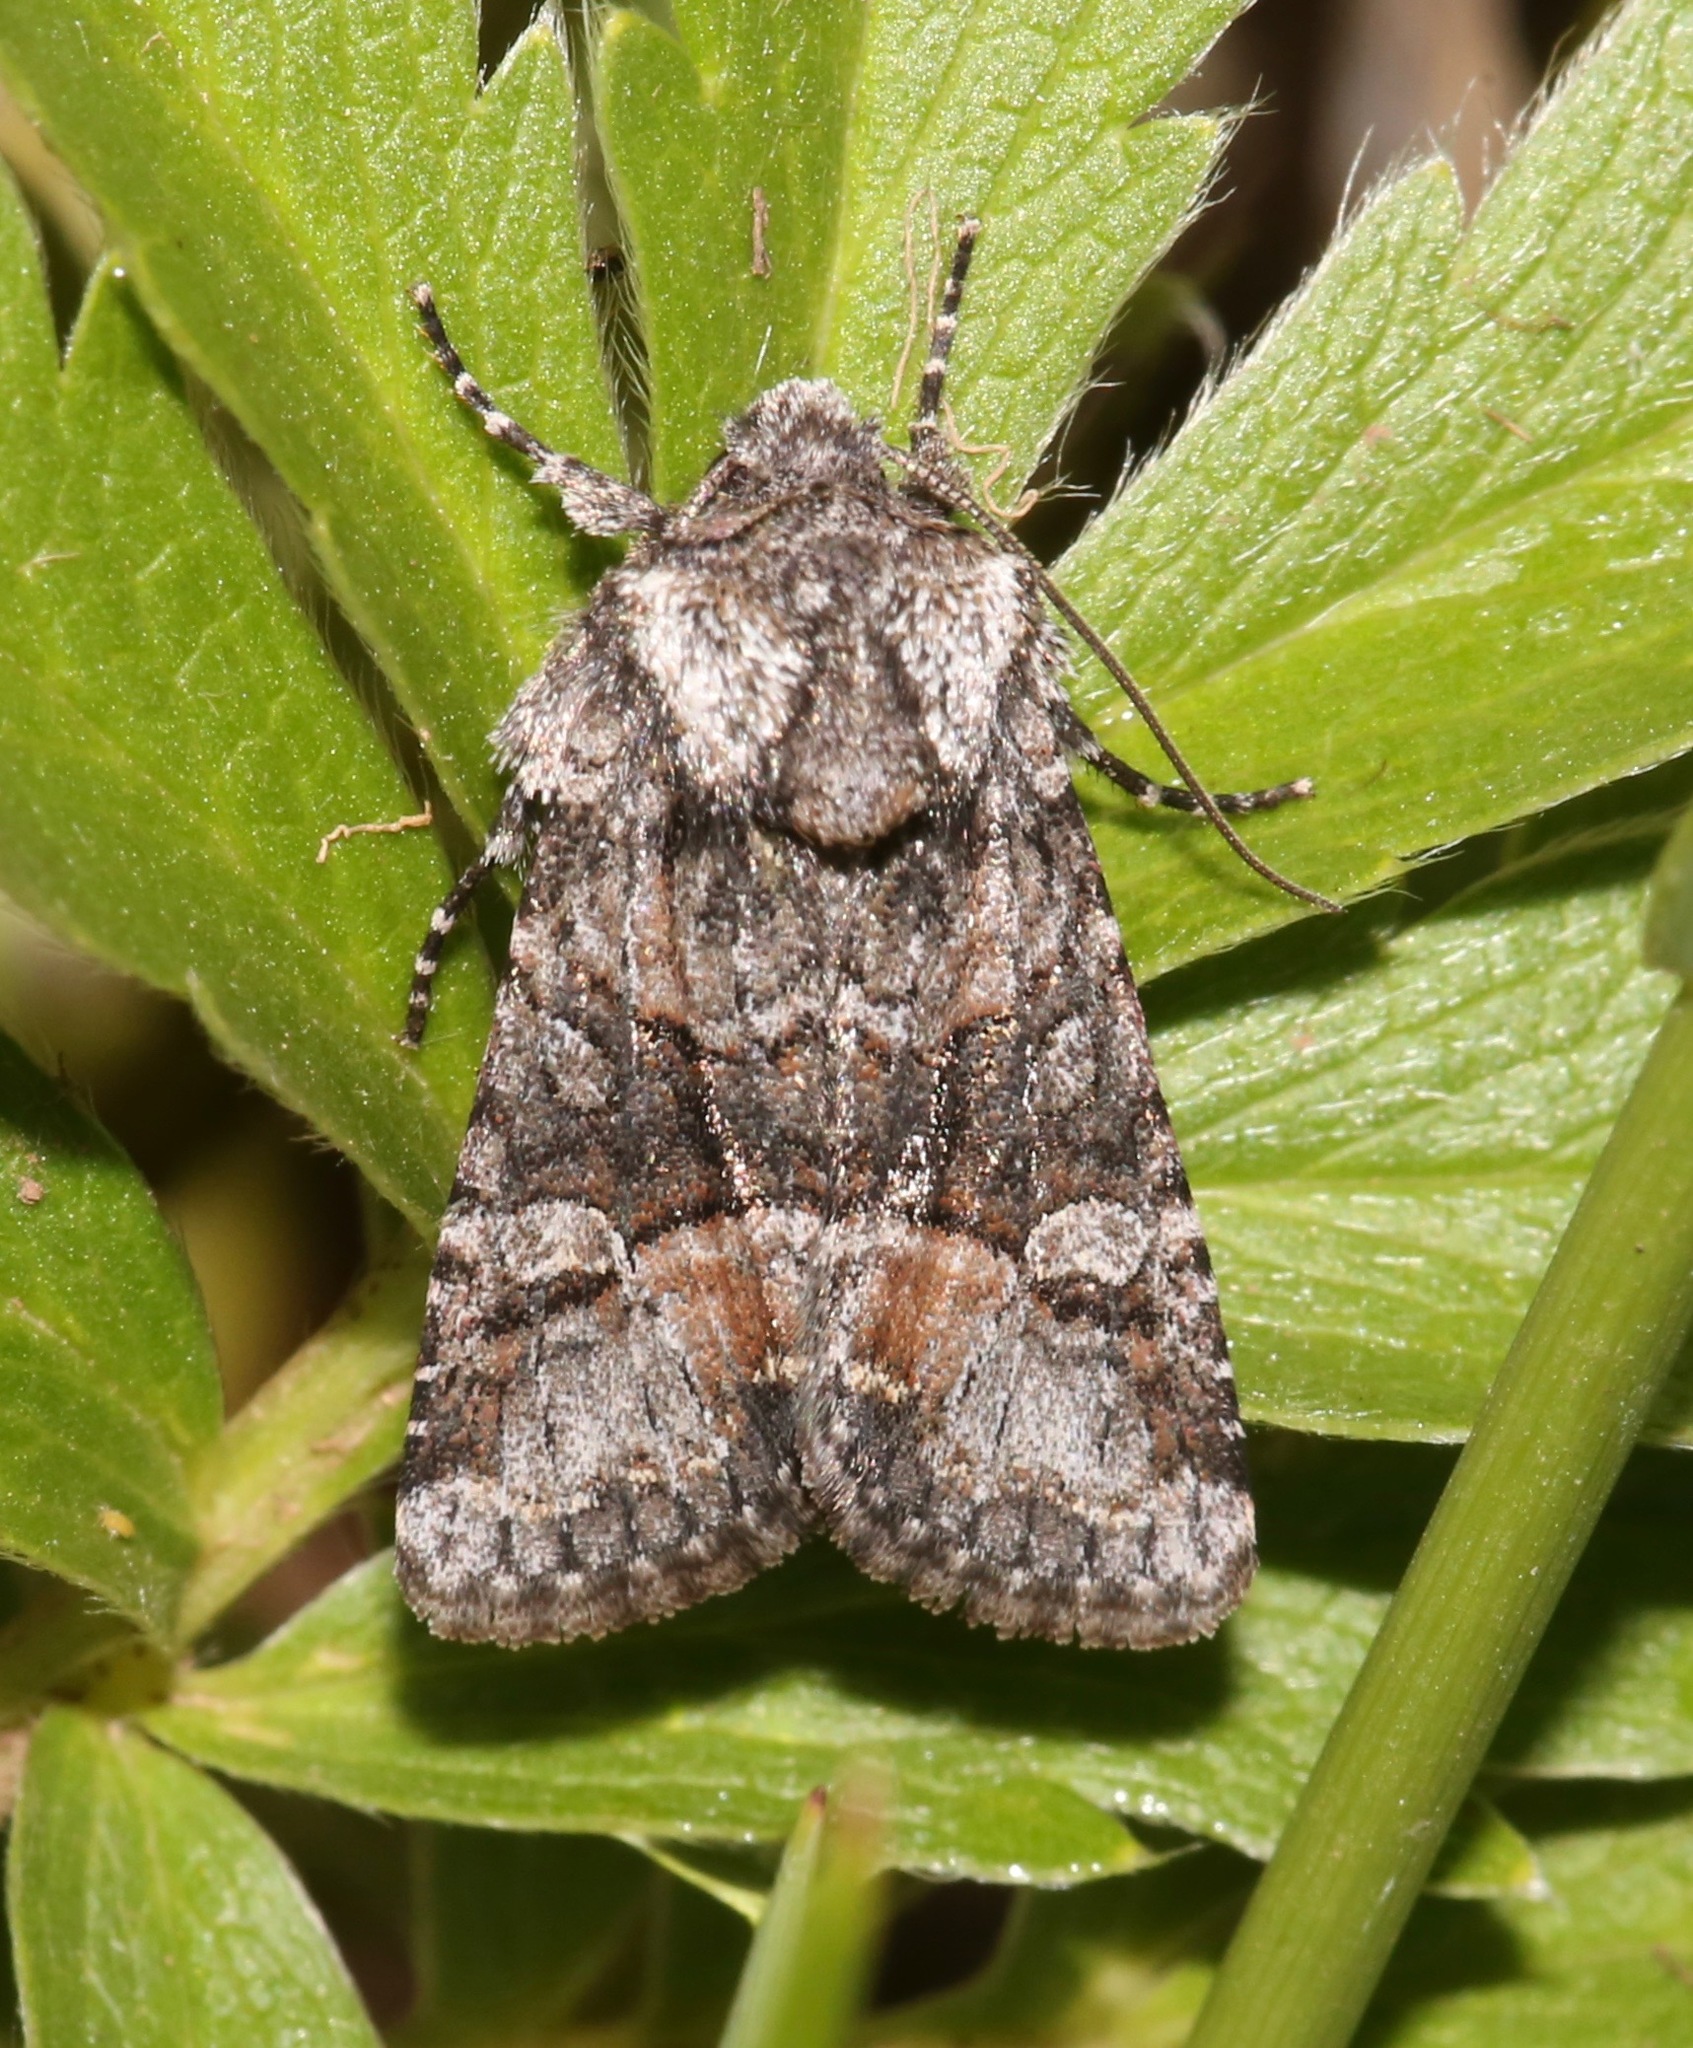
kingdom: Animalia
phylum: Arthropoda
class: Insecta
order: Lepidoptera
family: Noctuidae
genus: Lacinipolia
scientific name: Lacinipolia olivacea
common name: Olive arches moth
